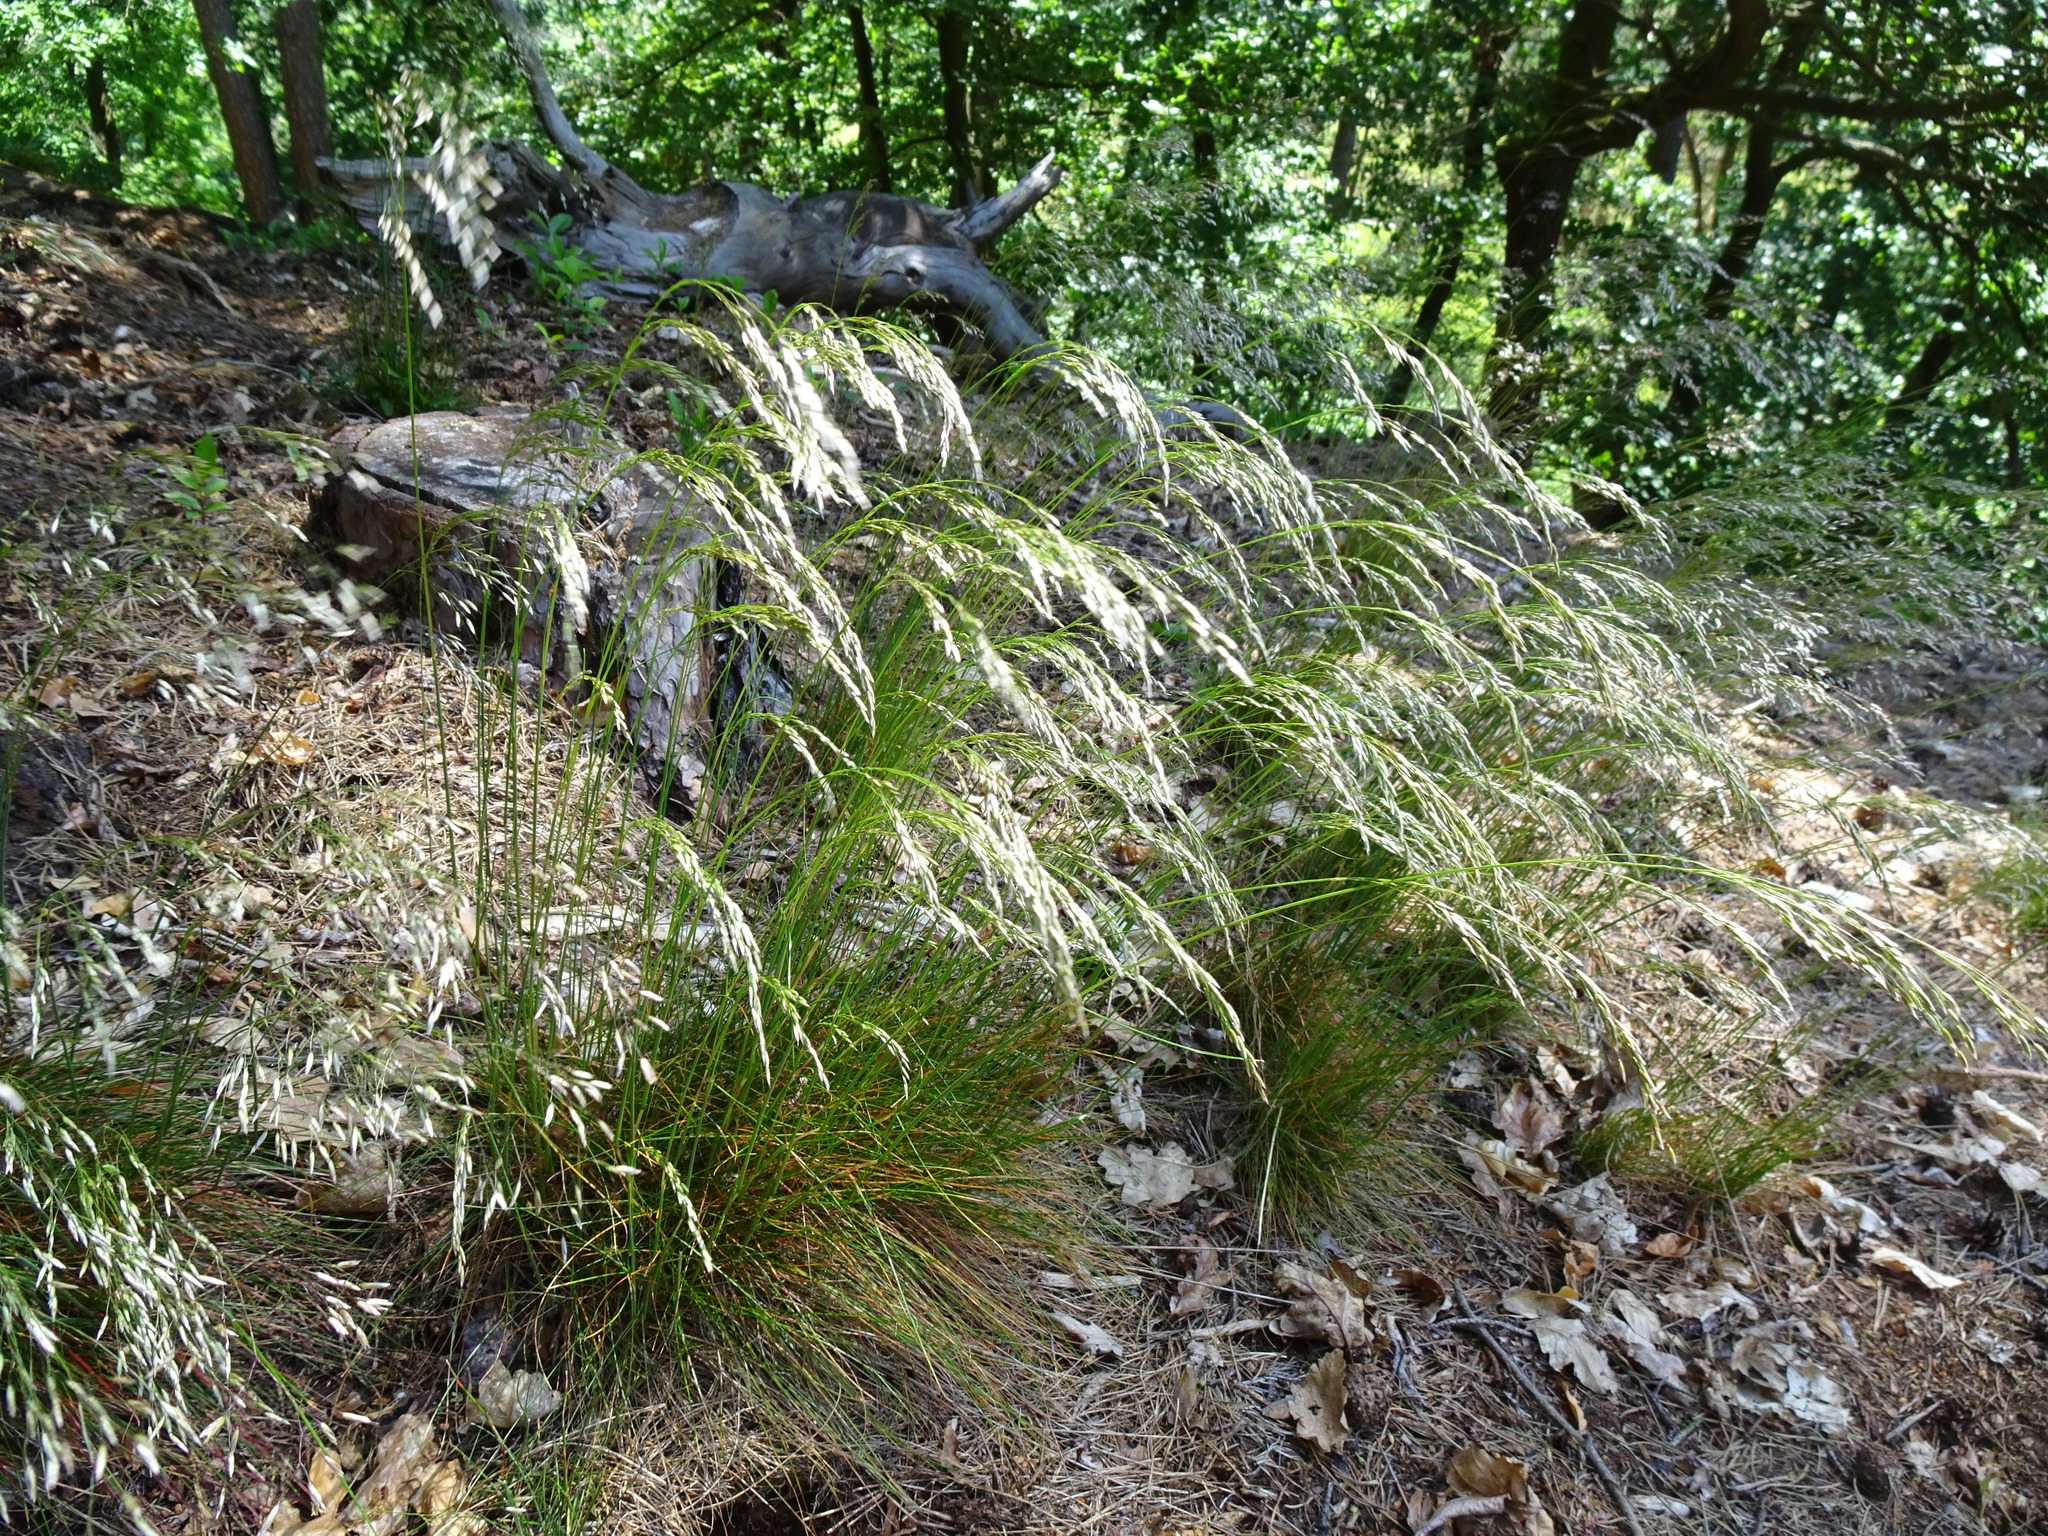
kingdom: Plantae
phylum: Tracheophyta
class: Liliopsida
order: Poales
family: Poaceae
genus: Avenella
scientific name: Avenella flexuosa
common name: Wavy hairgrass
